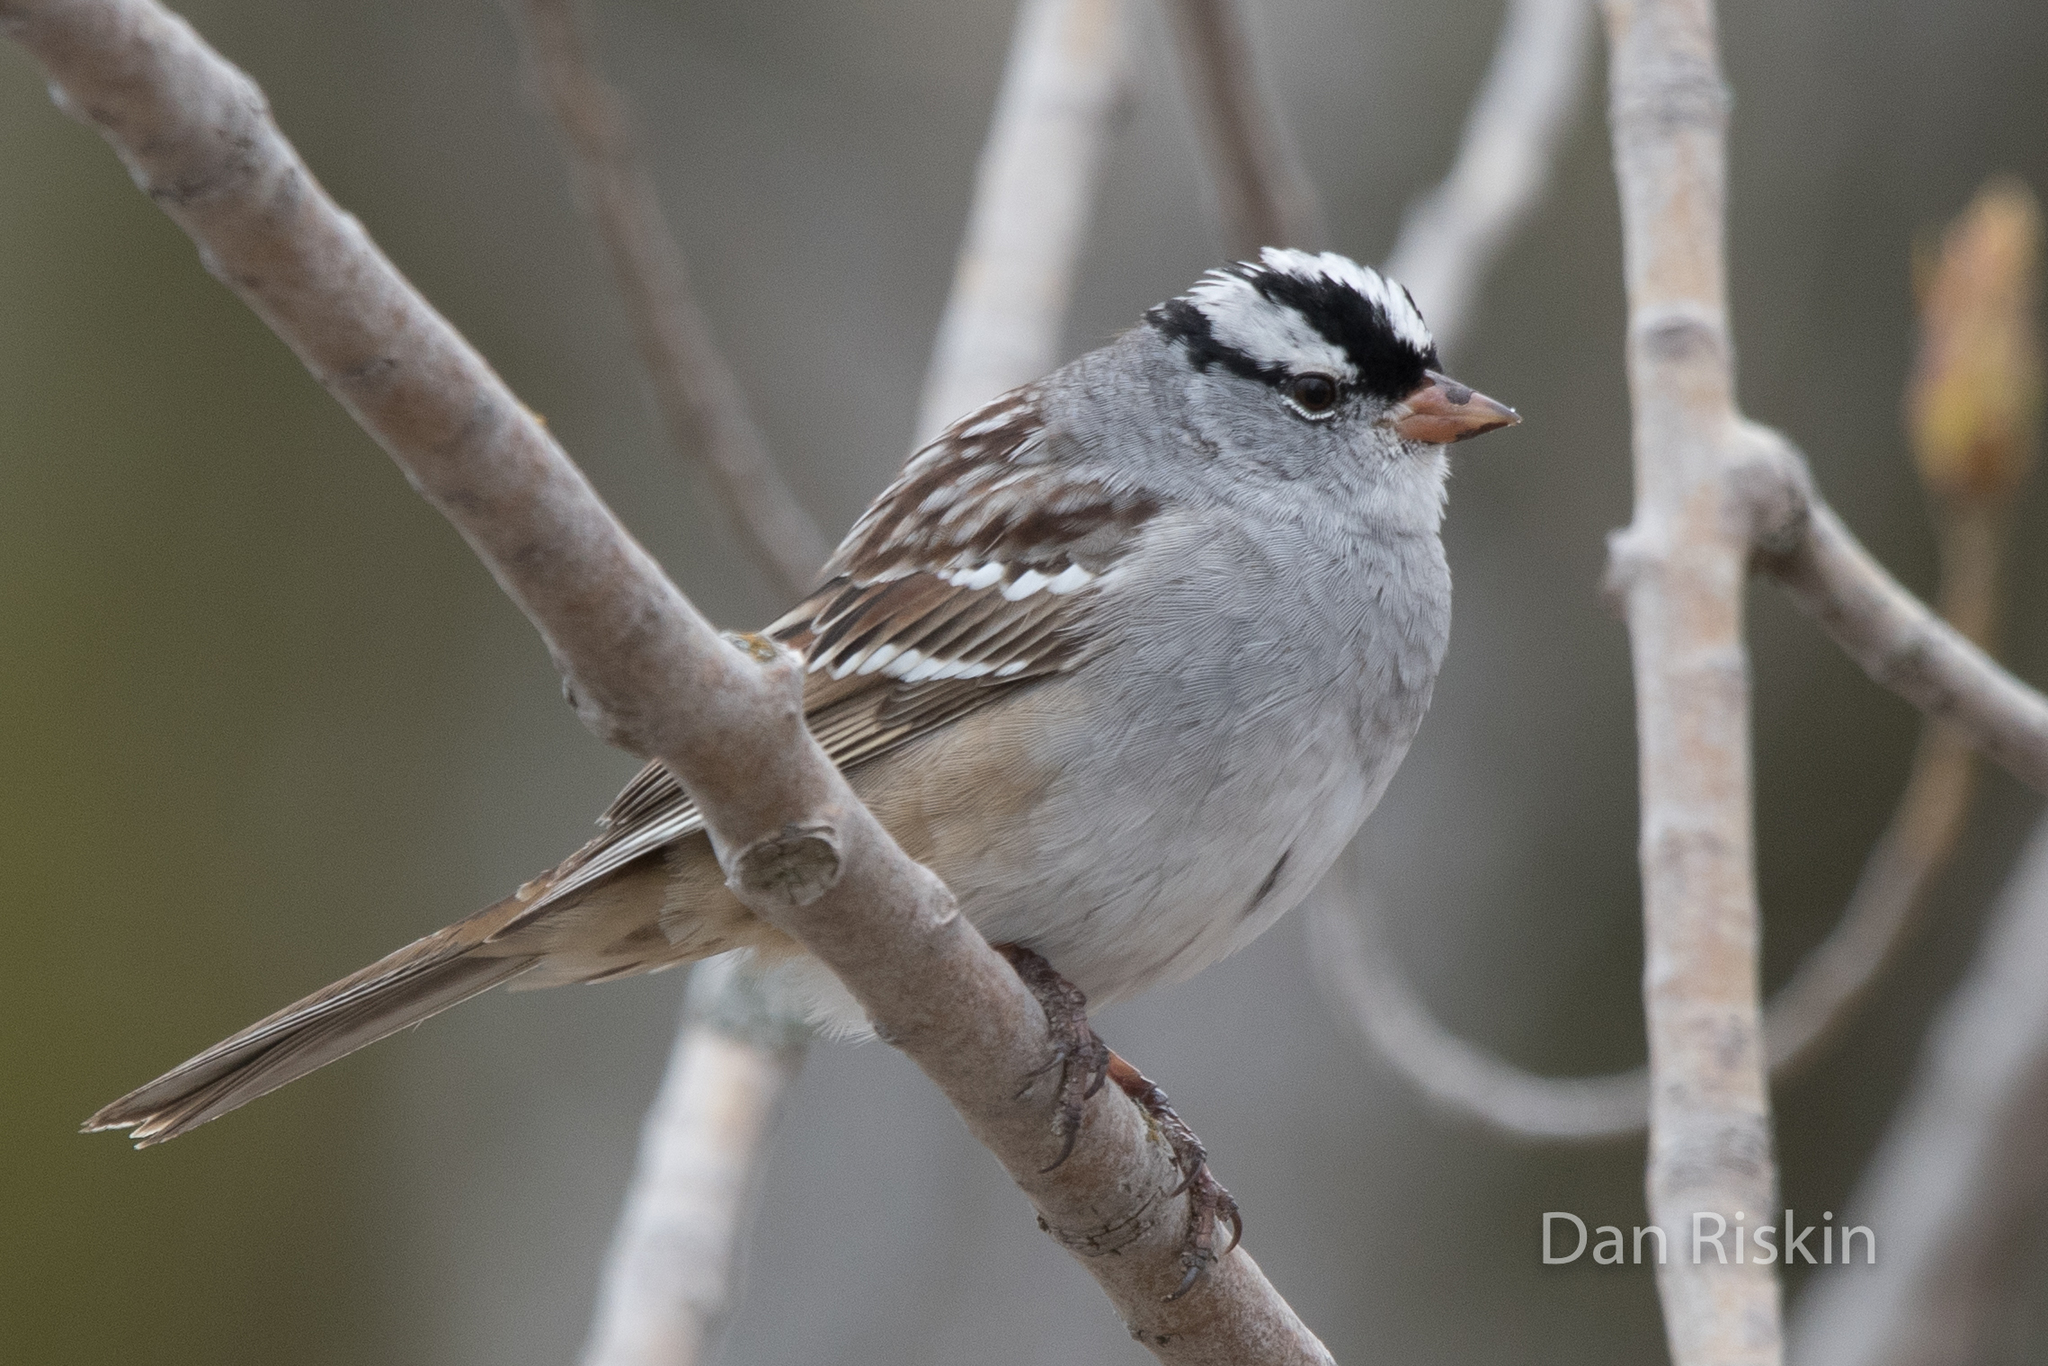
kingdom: Animalia
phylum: Chordata
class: Aves
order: Passeriformes
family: Passerellidae
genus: Zonotrichia
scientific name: Zonotrichia leucophrys
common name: White-crowned sparrow
